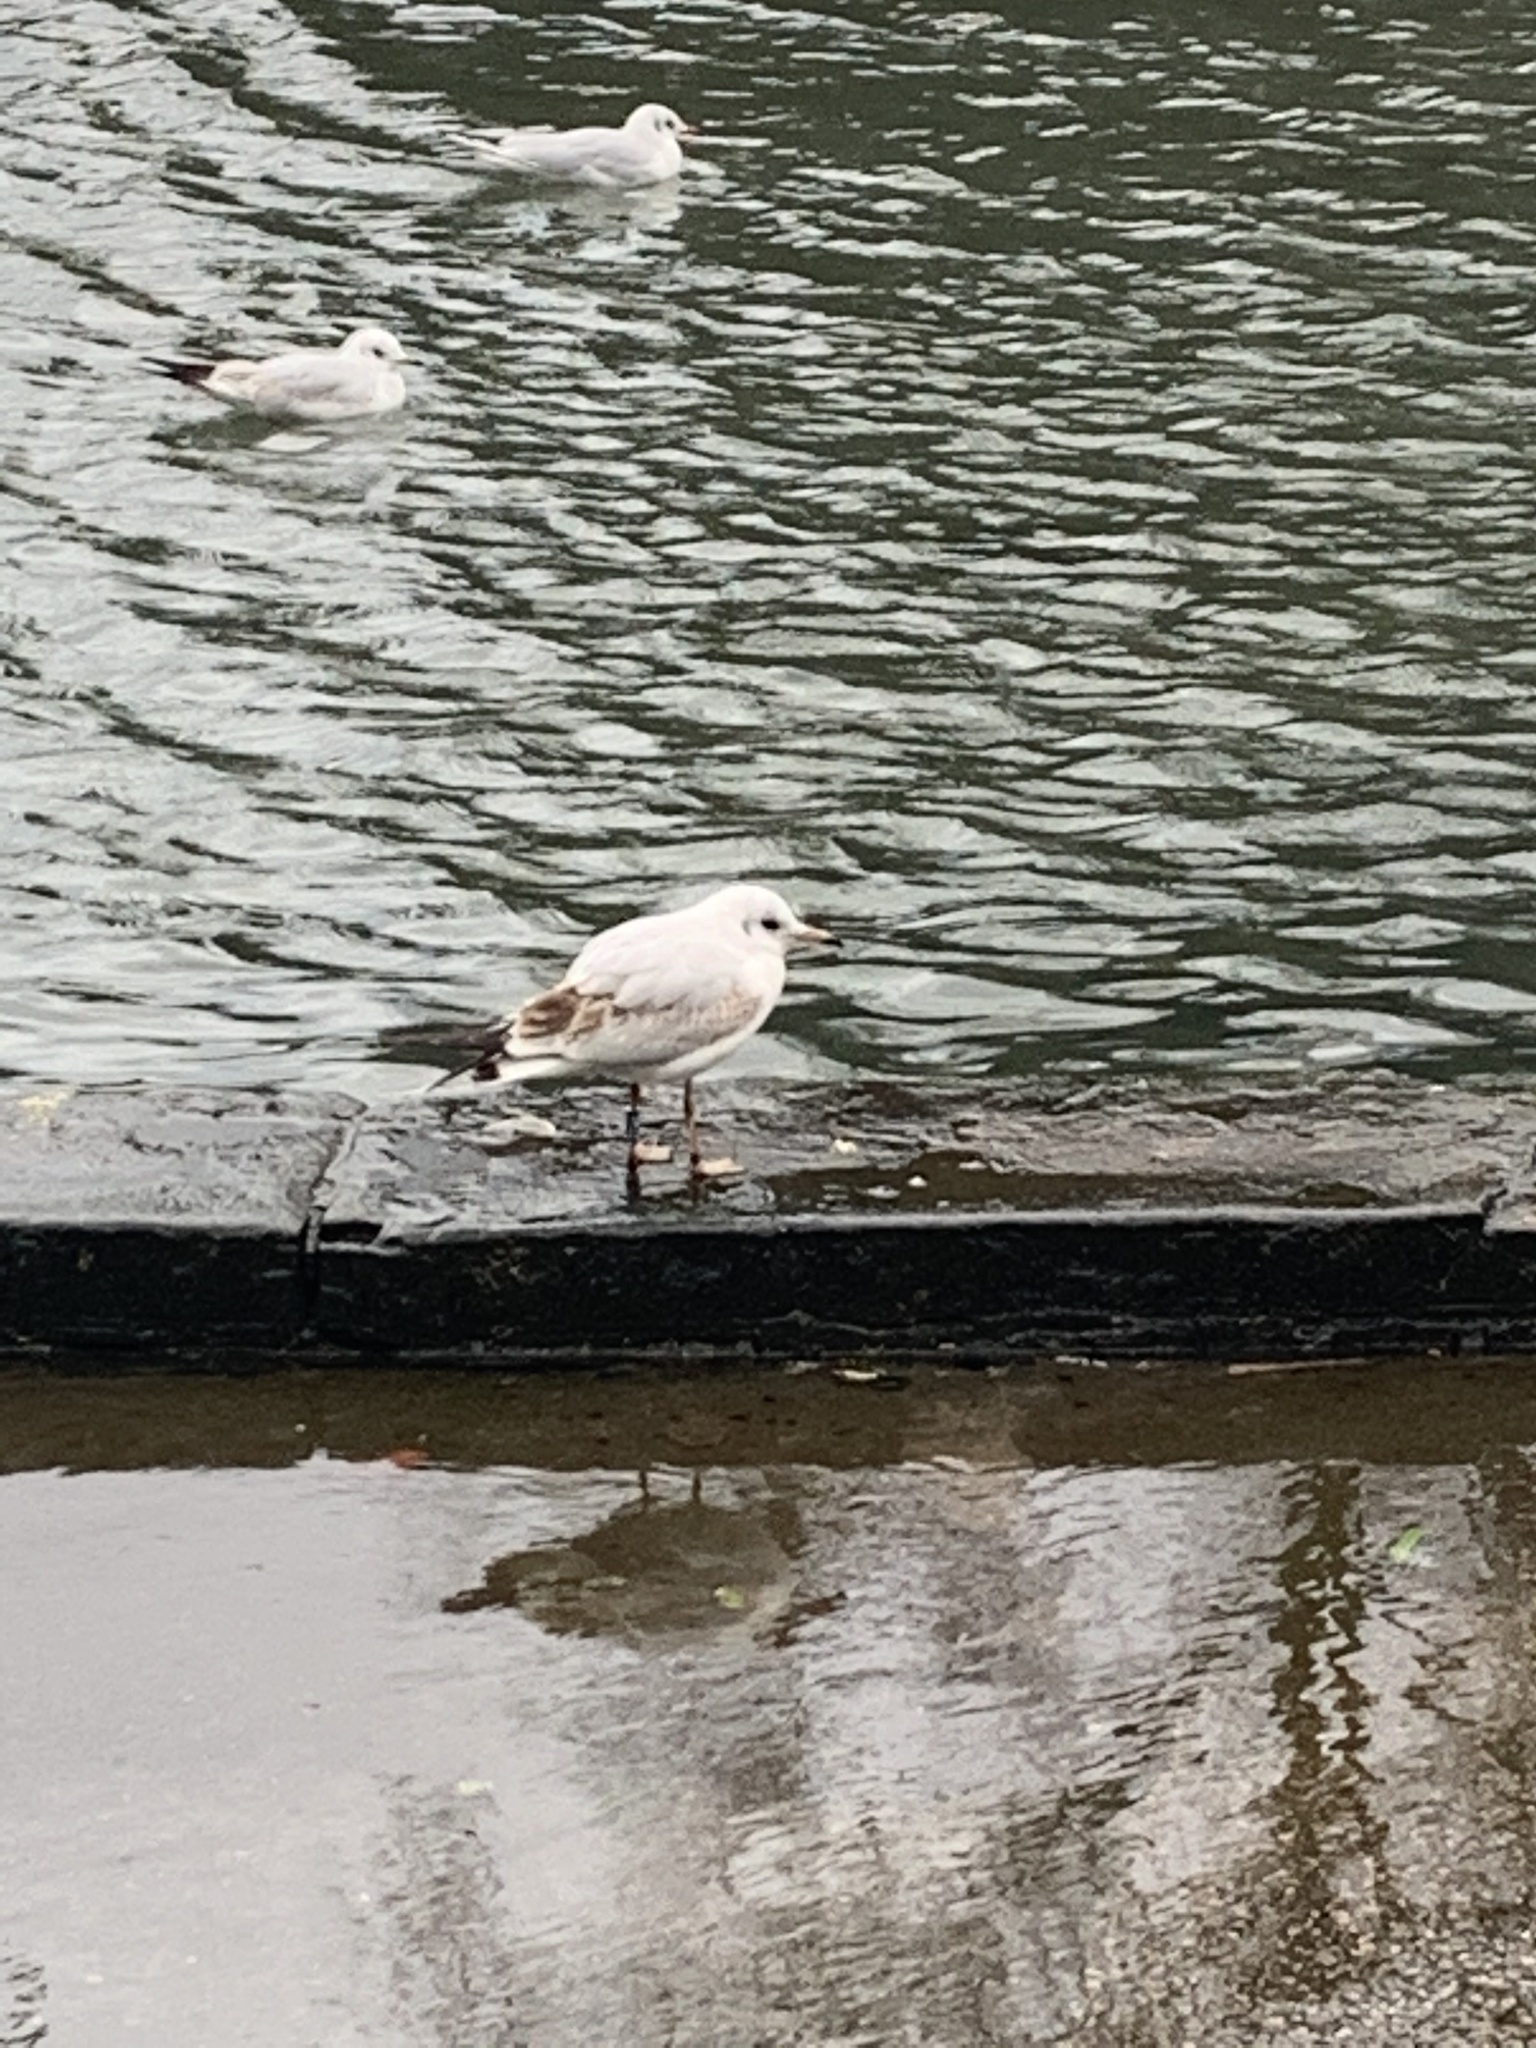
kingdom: Animalia
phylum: Chordata
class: Aves
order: Charadriiformes
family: Laridae
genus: Chroicocephalus
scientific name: Chroicocephalus ridibundus
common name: Black-headed gull
